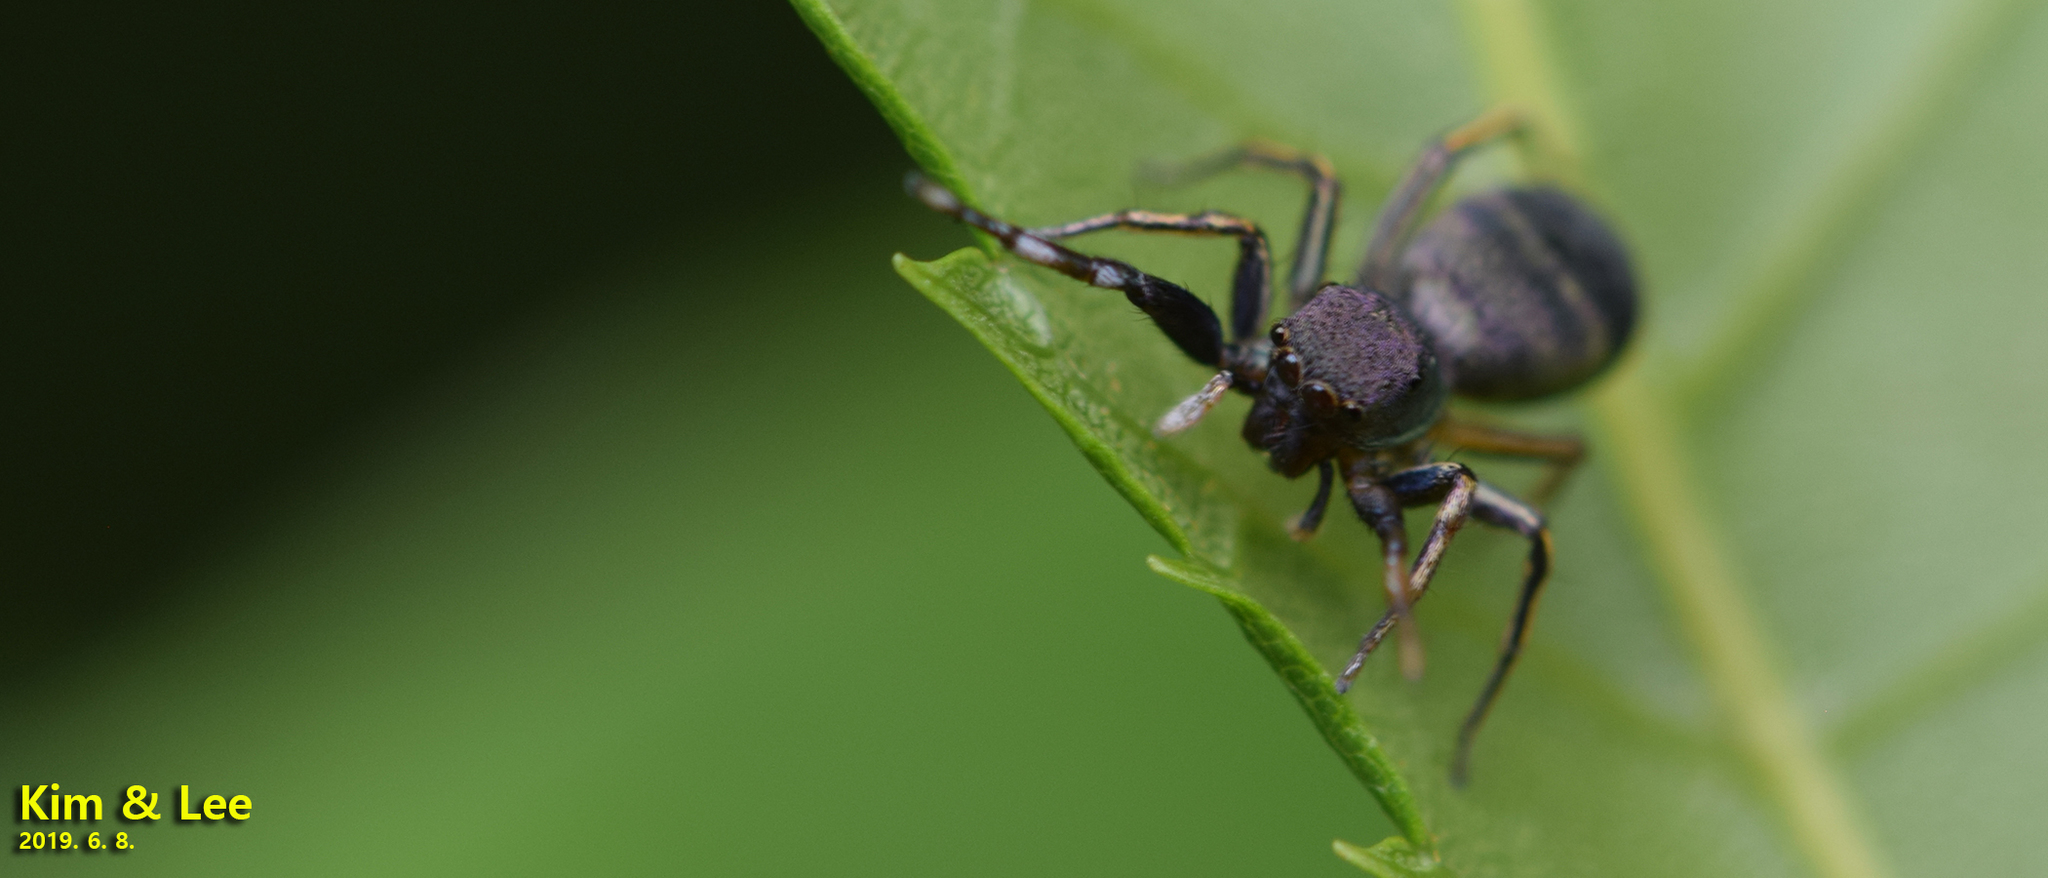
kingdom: Animalia
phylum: Arthropoda
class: Arachnida
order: Araneae
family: Salticidae
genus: Siler
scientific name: Siler cupreus
